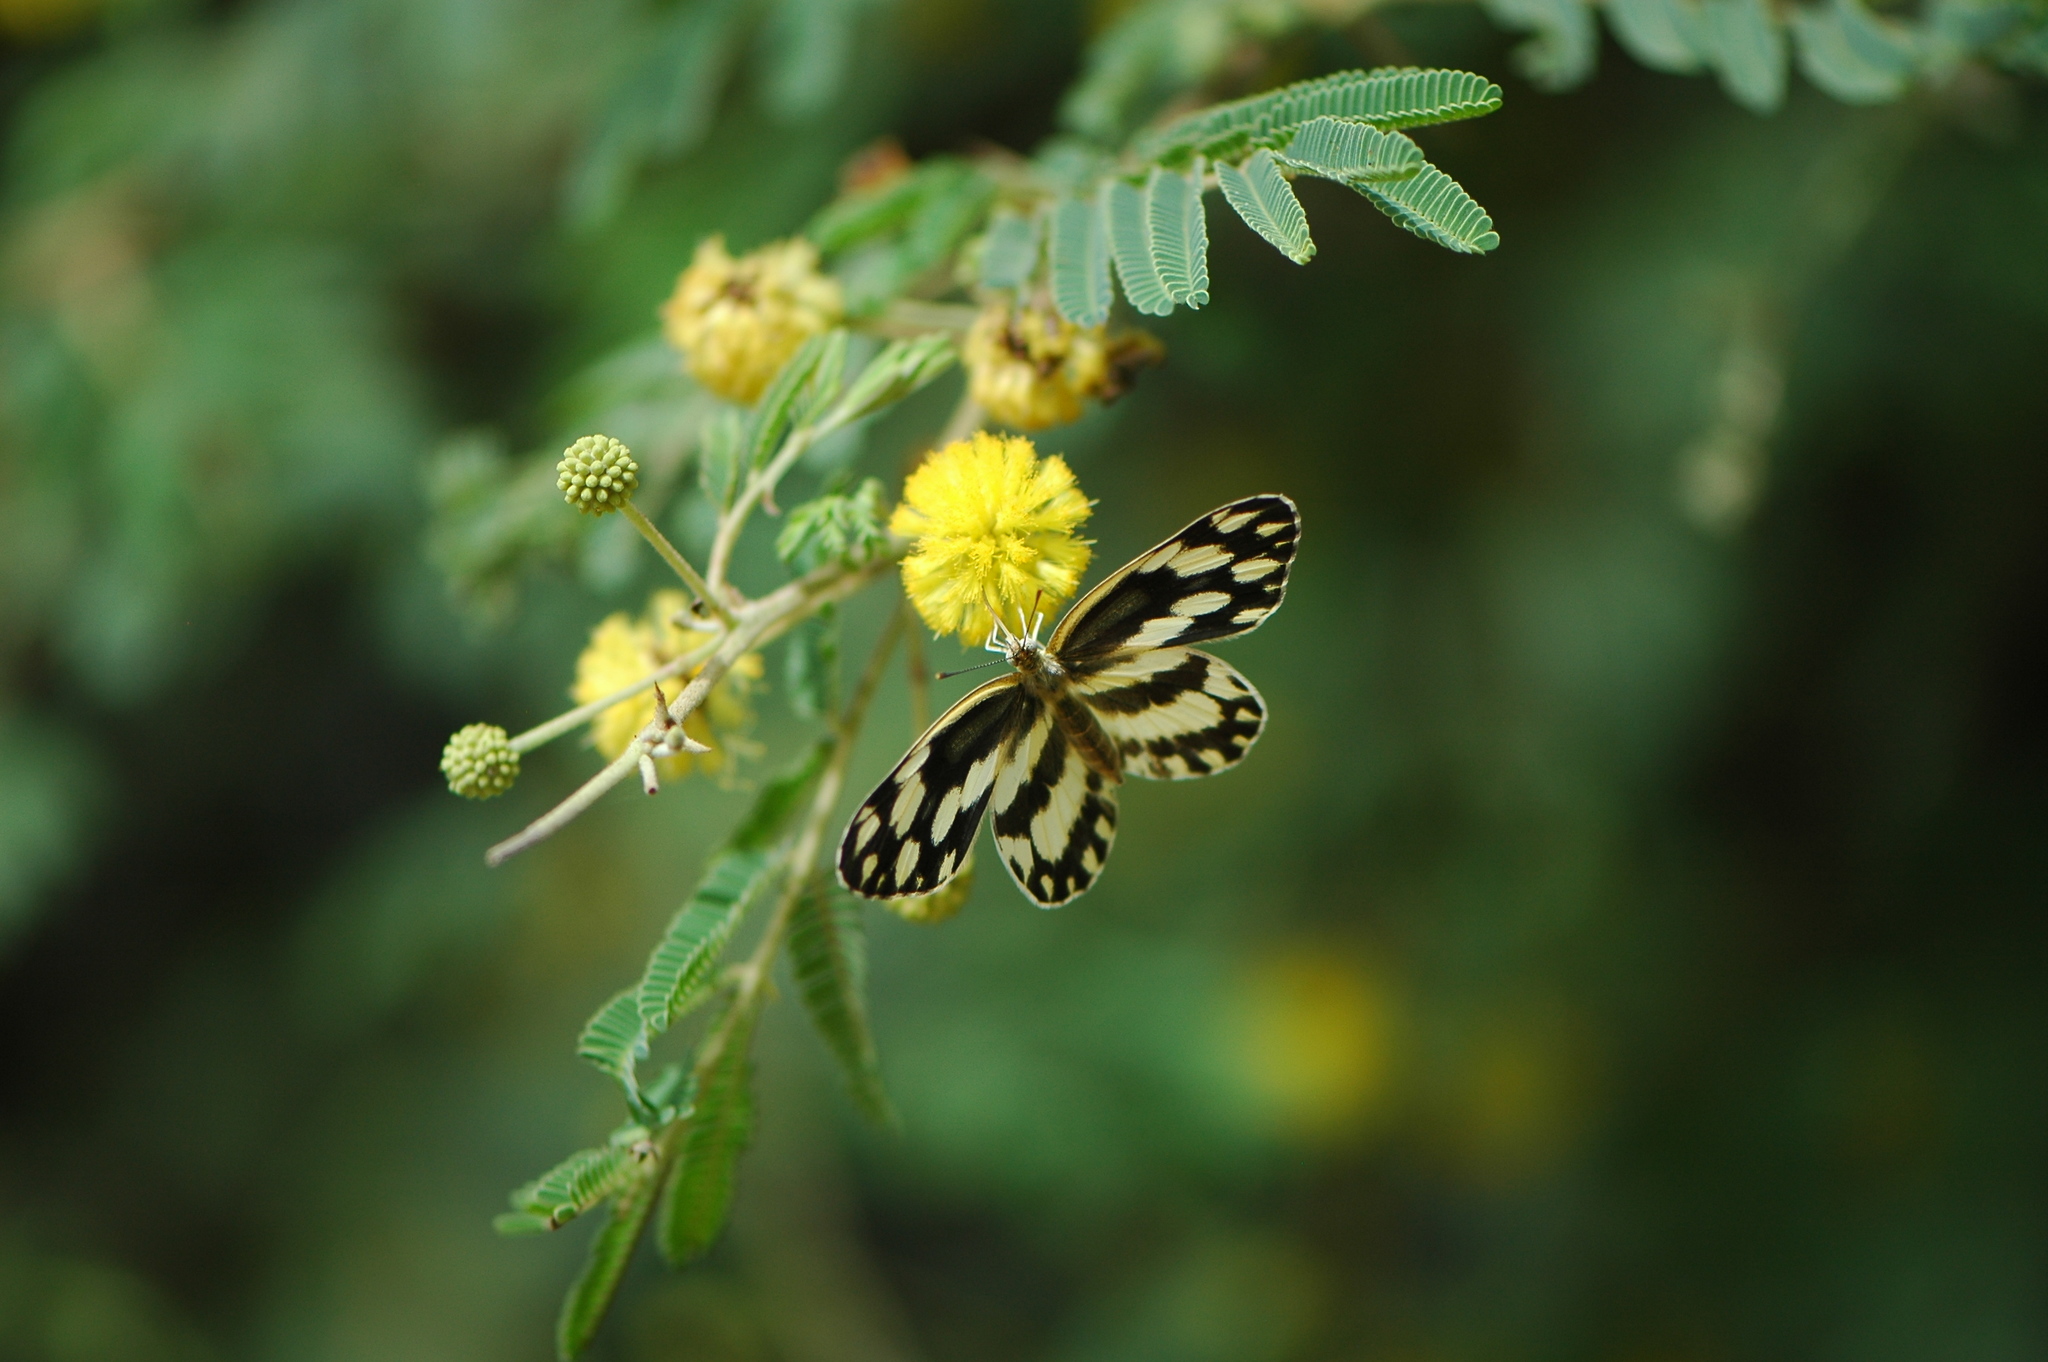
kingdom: Animalia
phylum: Arthropoda
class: Insecta
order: Lepidoptera
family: Pieridae
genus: Pinacopteryx
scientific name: Pinacopteryx eriphia
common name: Zebra white
